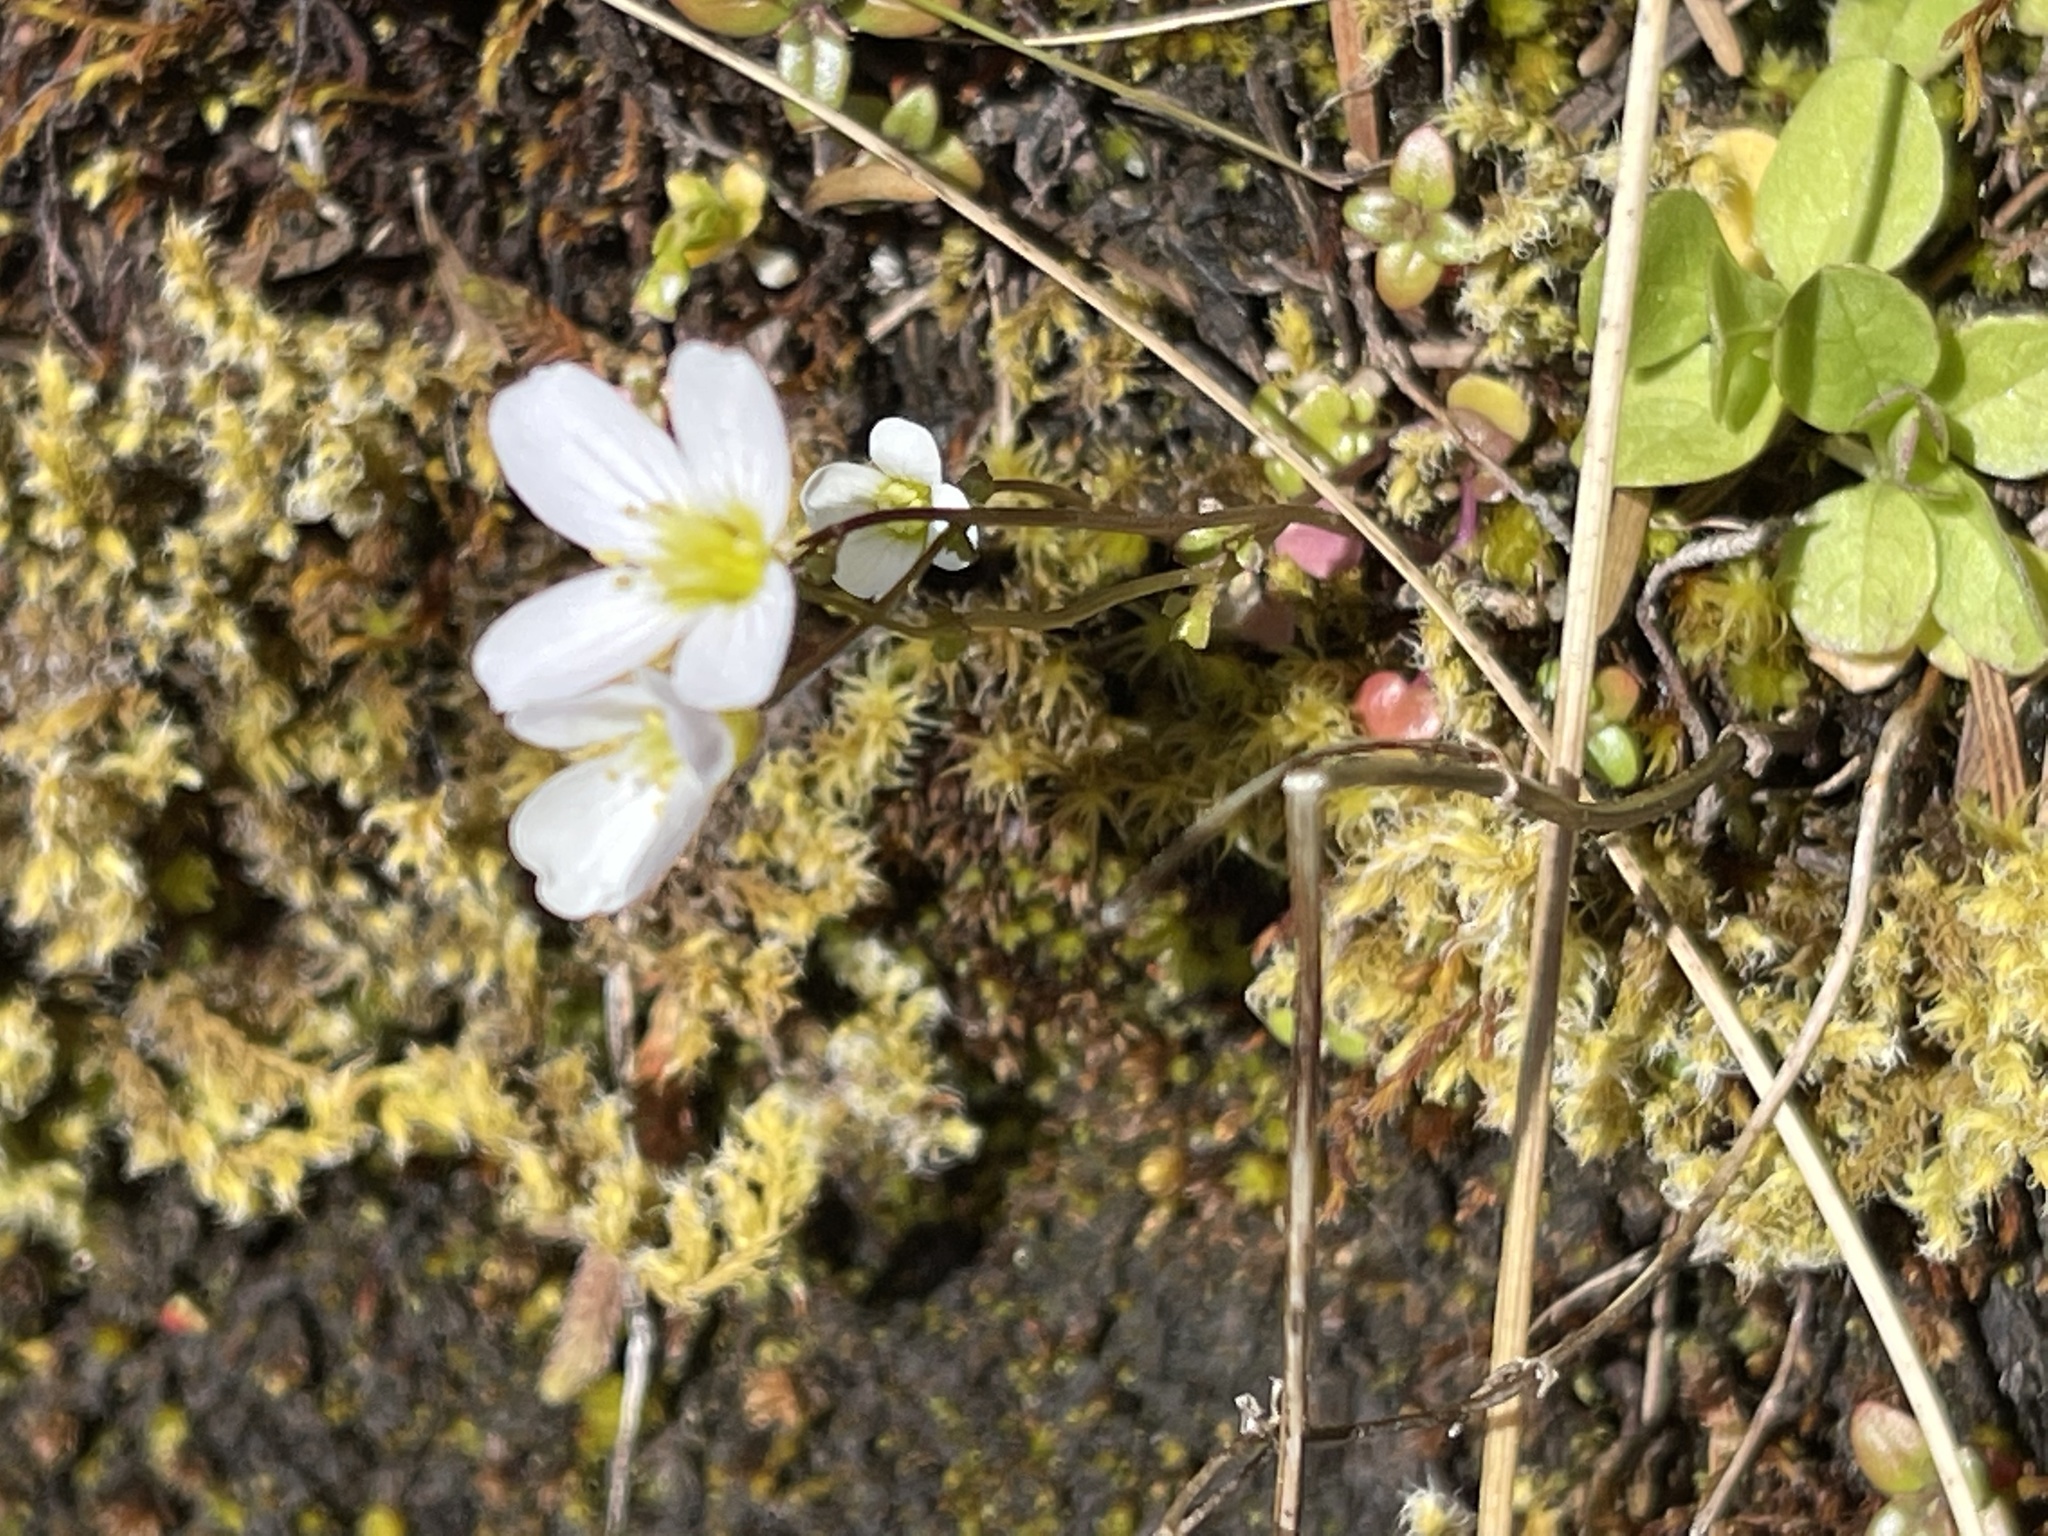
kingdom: Plantae
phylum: Tracheophyta
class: Magnoliopsida
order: Brassicales
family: Brassicaceae
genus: Cardamine
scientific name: Cardamine pattersonii
